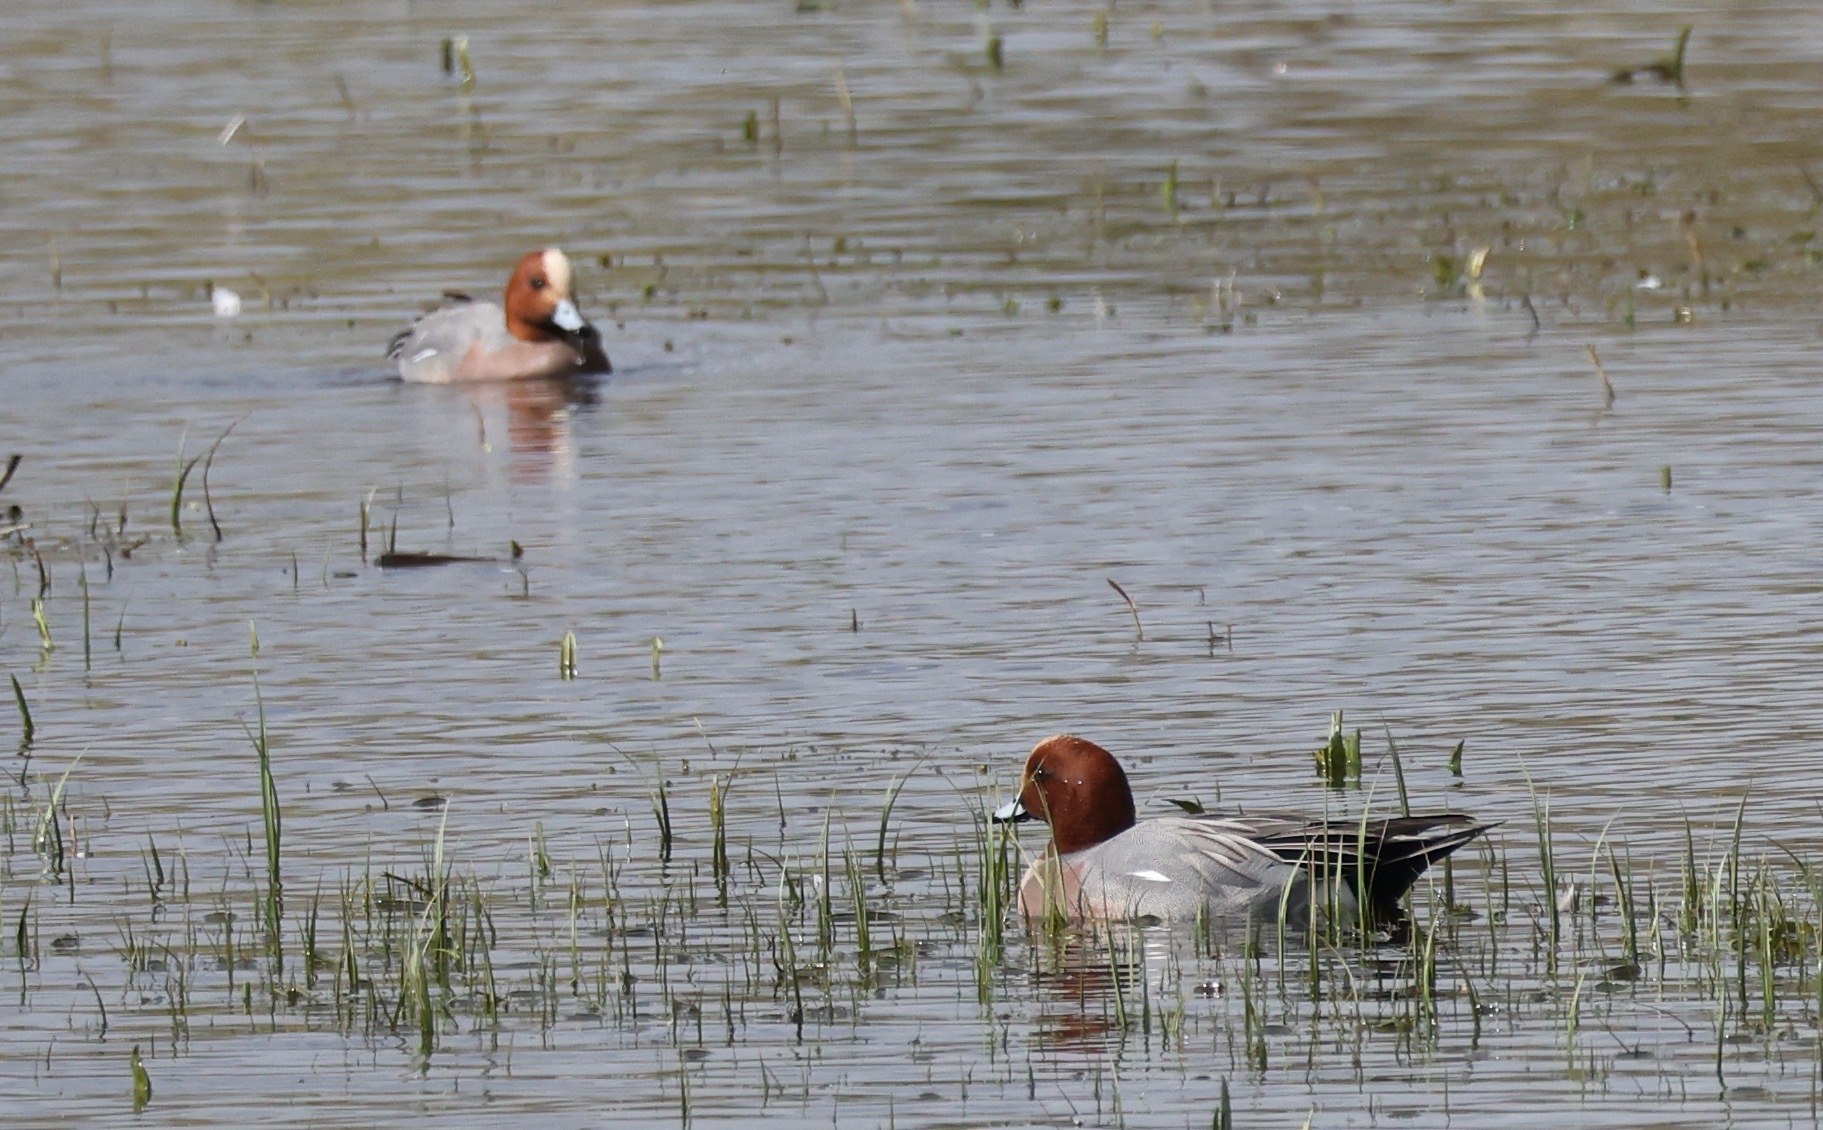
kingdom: Animalia
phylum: Chordata
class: Aves
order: Anseriformes
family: Anatidae
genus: Mareca
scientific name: Mareca penelope
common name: Eurasian wigeon
